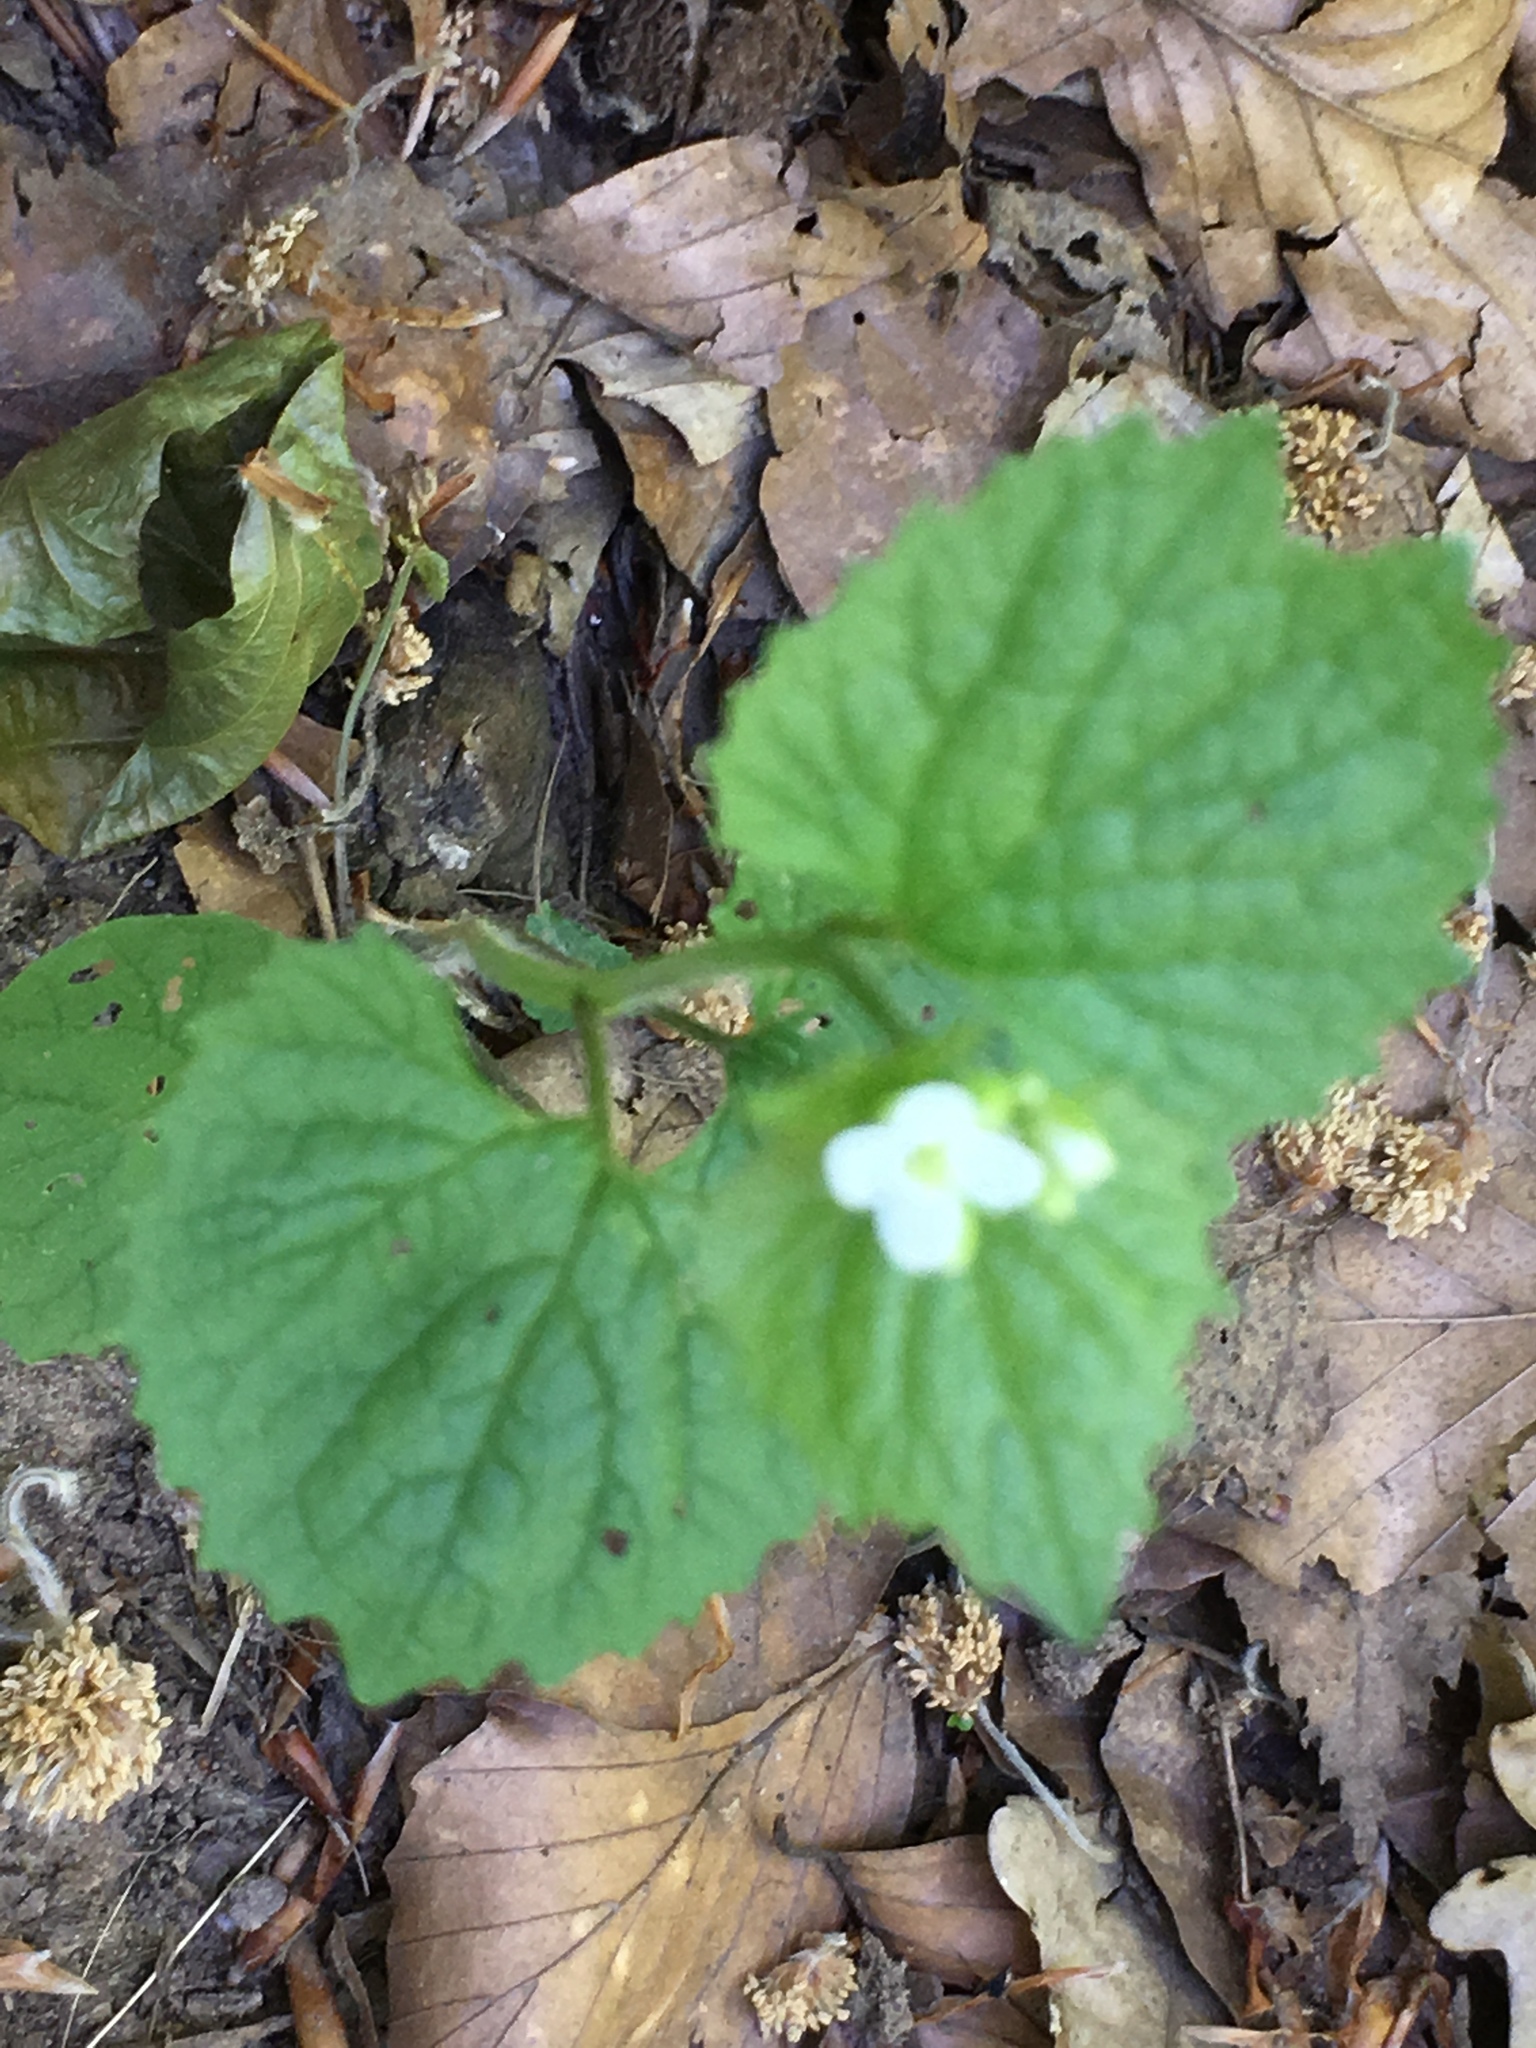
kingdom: Plantae
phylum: Tracheophyta
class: Magnoliopsida
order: Brassicales
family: Brassicaceae
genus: Alliaria
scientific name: Alliaria petiolata
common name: Garlic mustard
